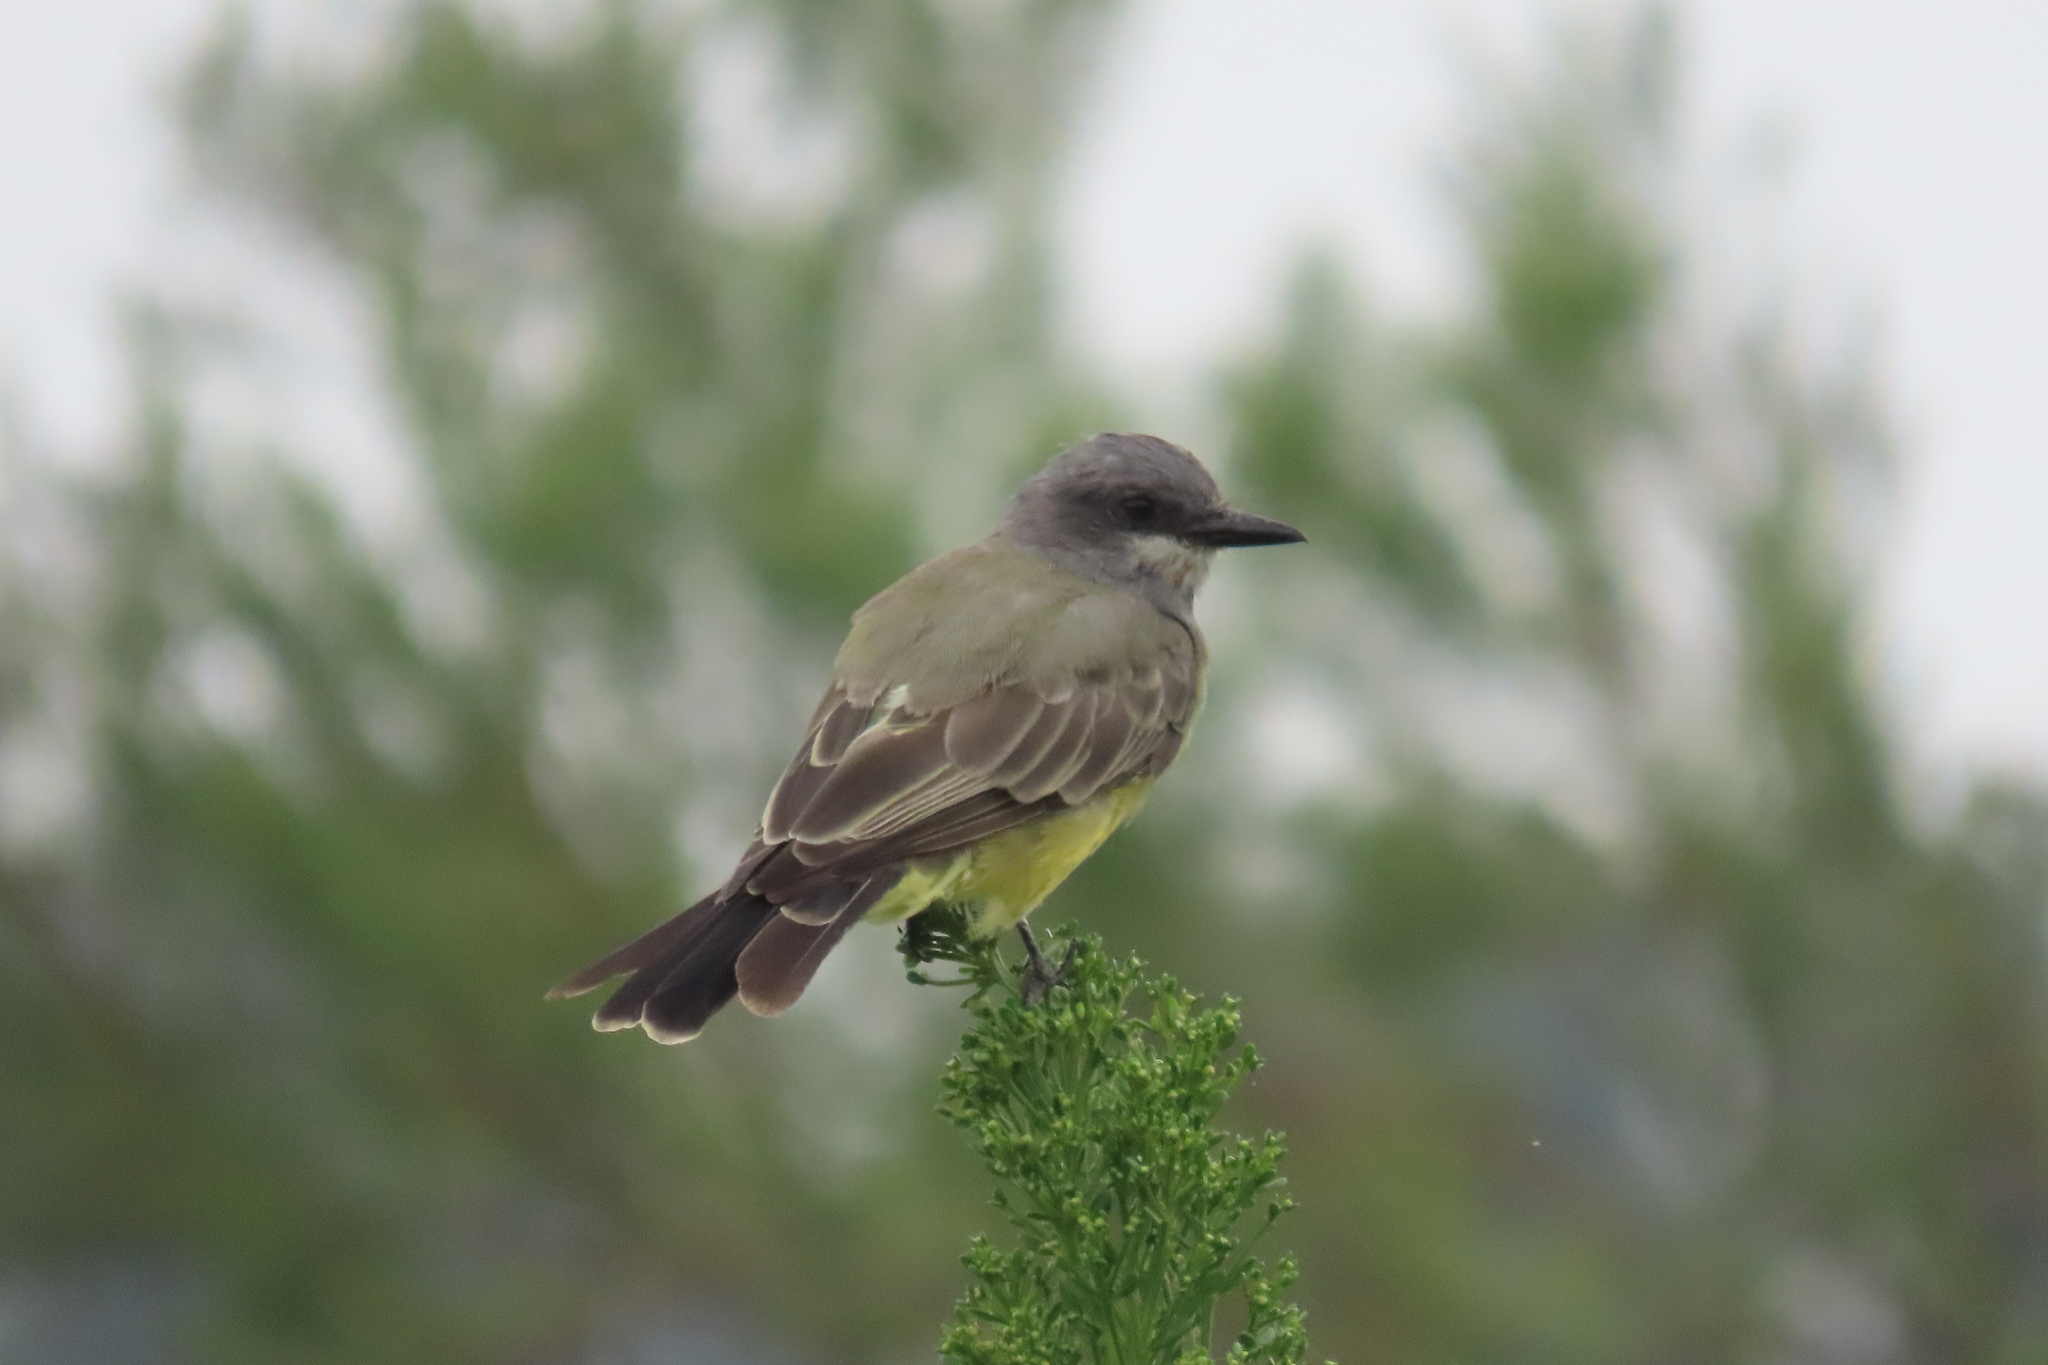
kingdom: Animalia
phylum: Chordata
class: Aves
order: Passeriformes
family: Tyrannidae
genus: Tyrannus
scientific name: Tyrannus vociferans
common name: Cassin's kingbird
